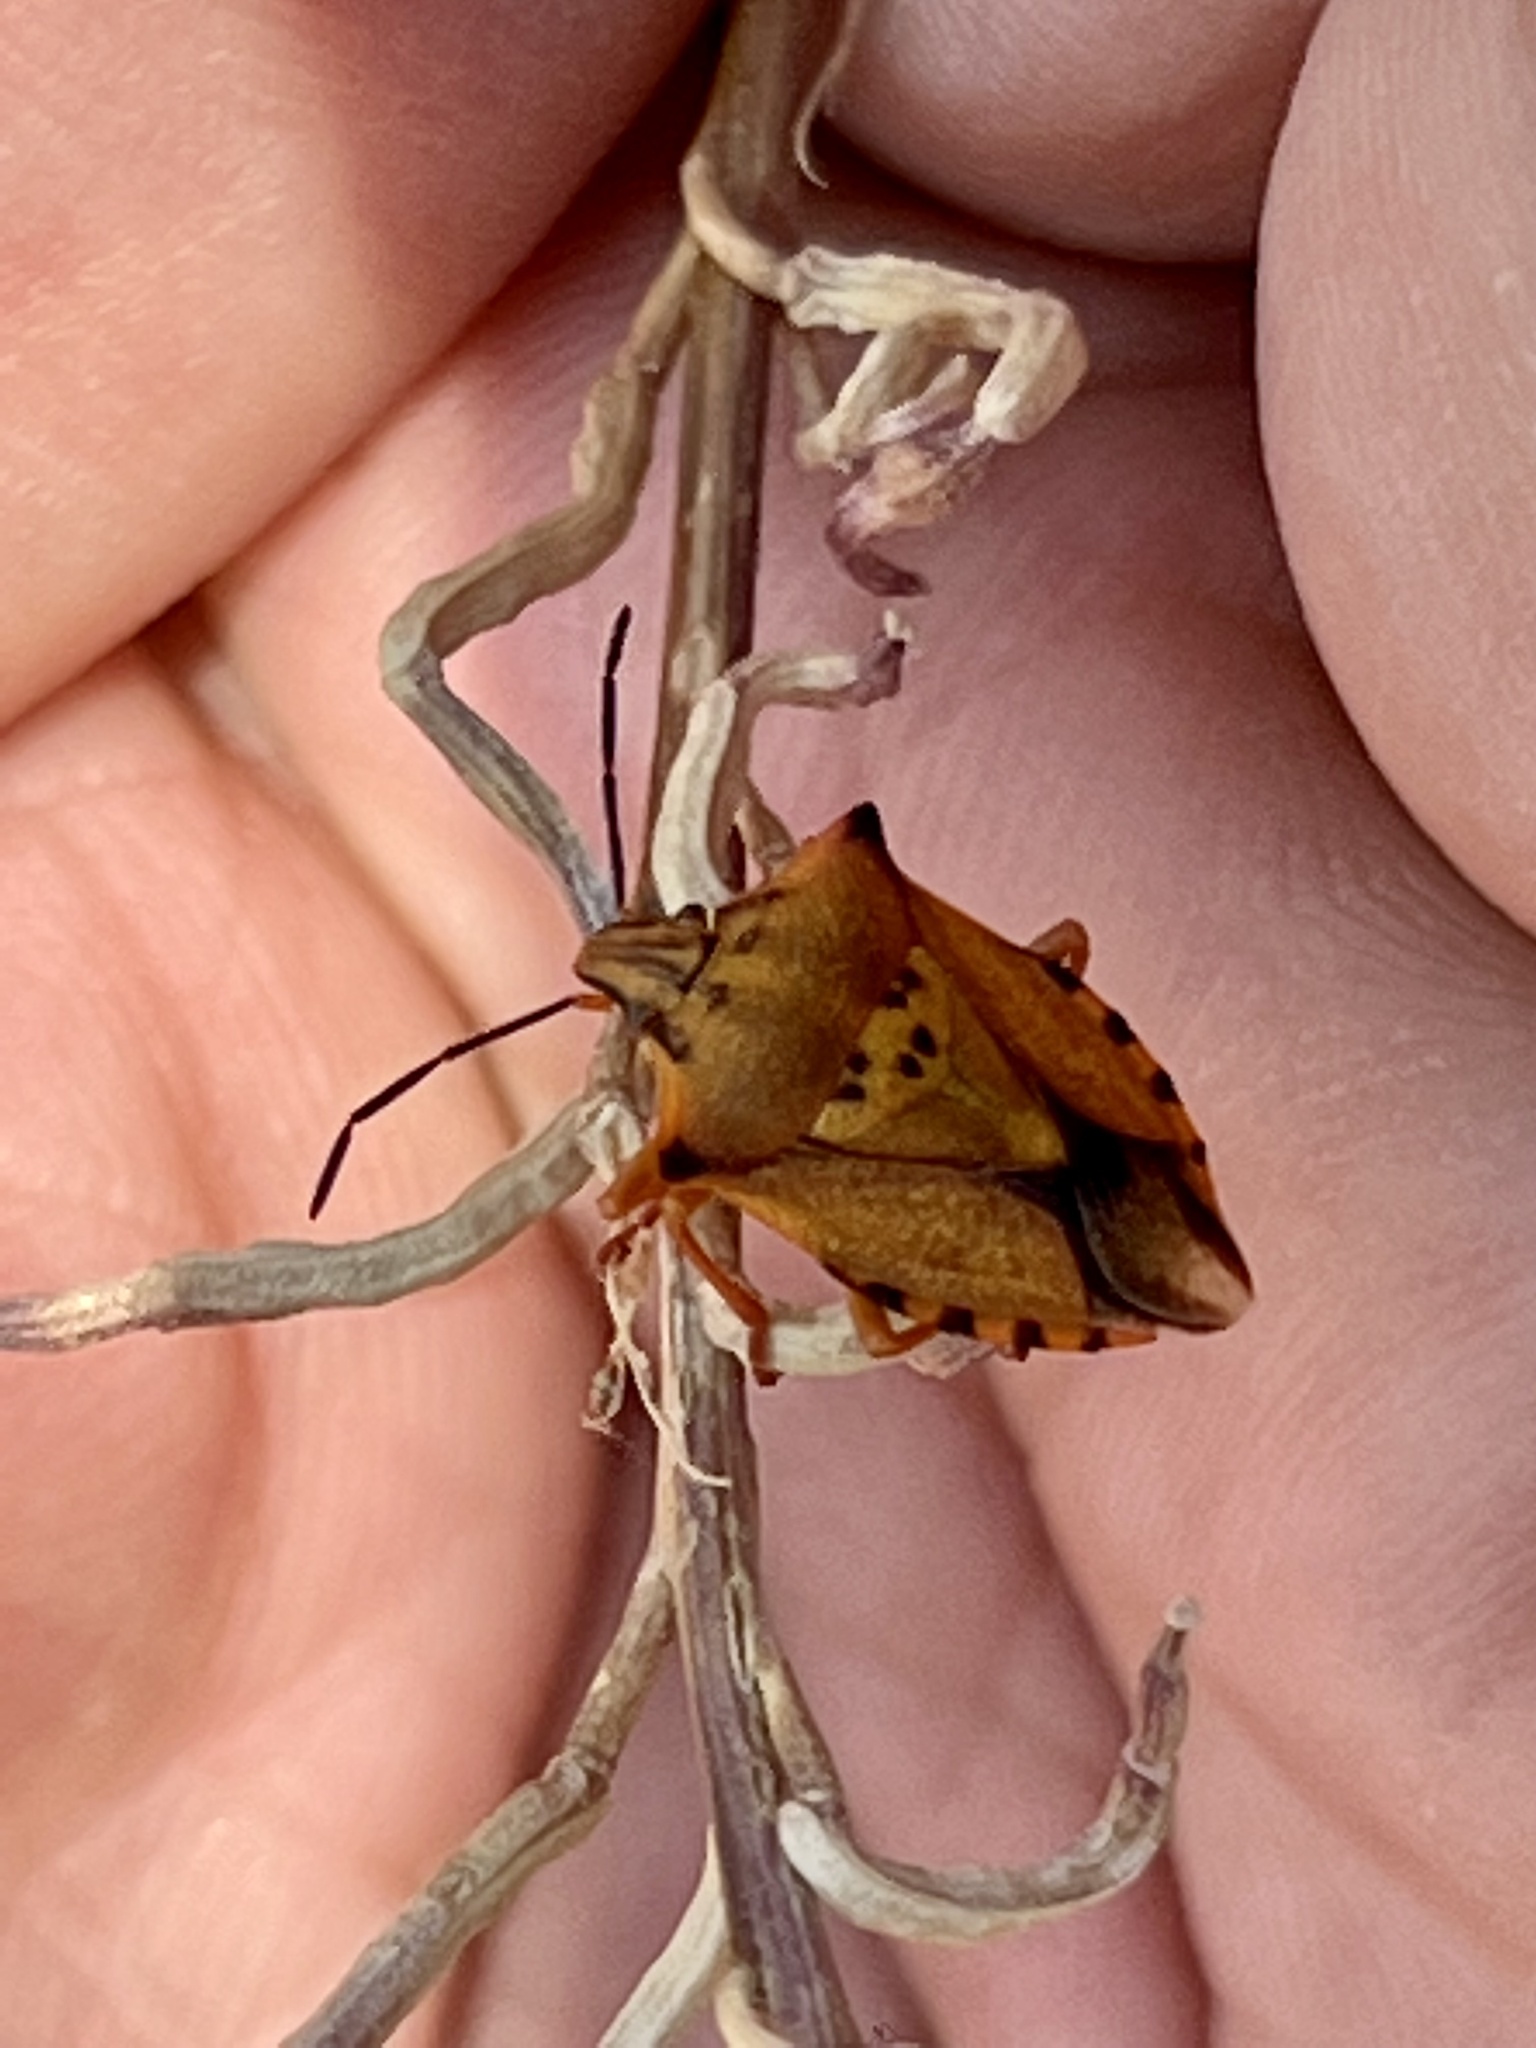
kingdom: Animalia
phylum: Arthropoda
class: Insecta
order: Hemiptera
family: Pentatomidae
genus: Carpocoris
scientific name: Carpocoris mediterraneus
